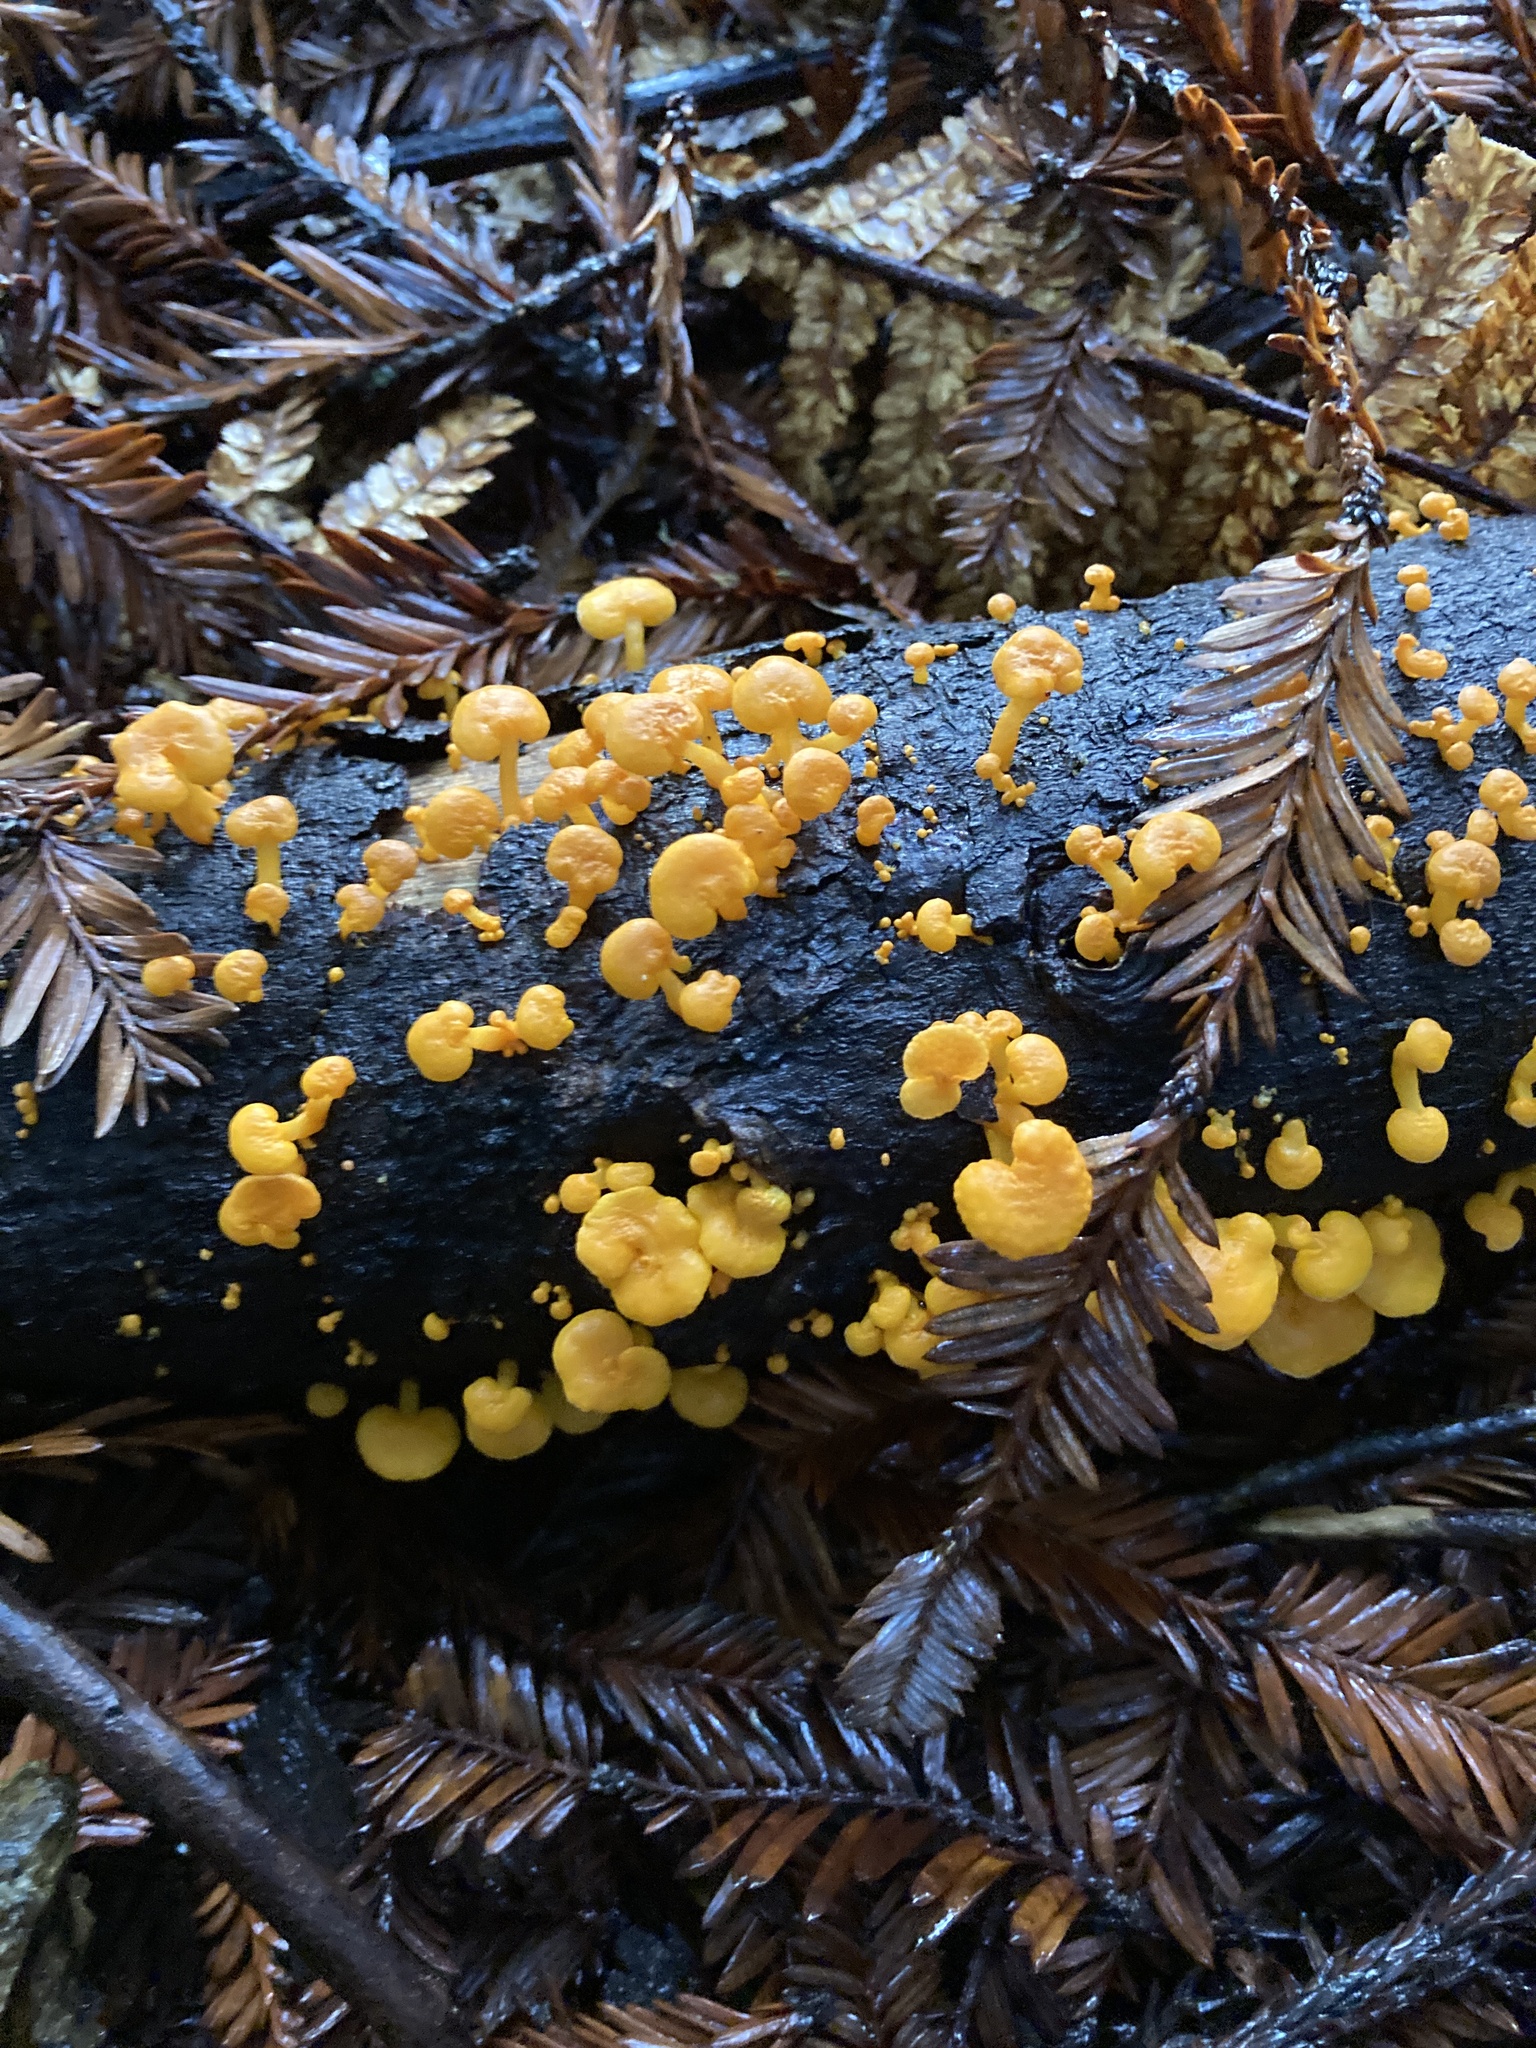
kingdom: Fungi
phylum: Basidiomycota
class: Agaricomycetes
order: Agaricales
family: Mycenaceae
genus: Favolaschia
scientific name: Favolaschia claudopus
